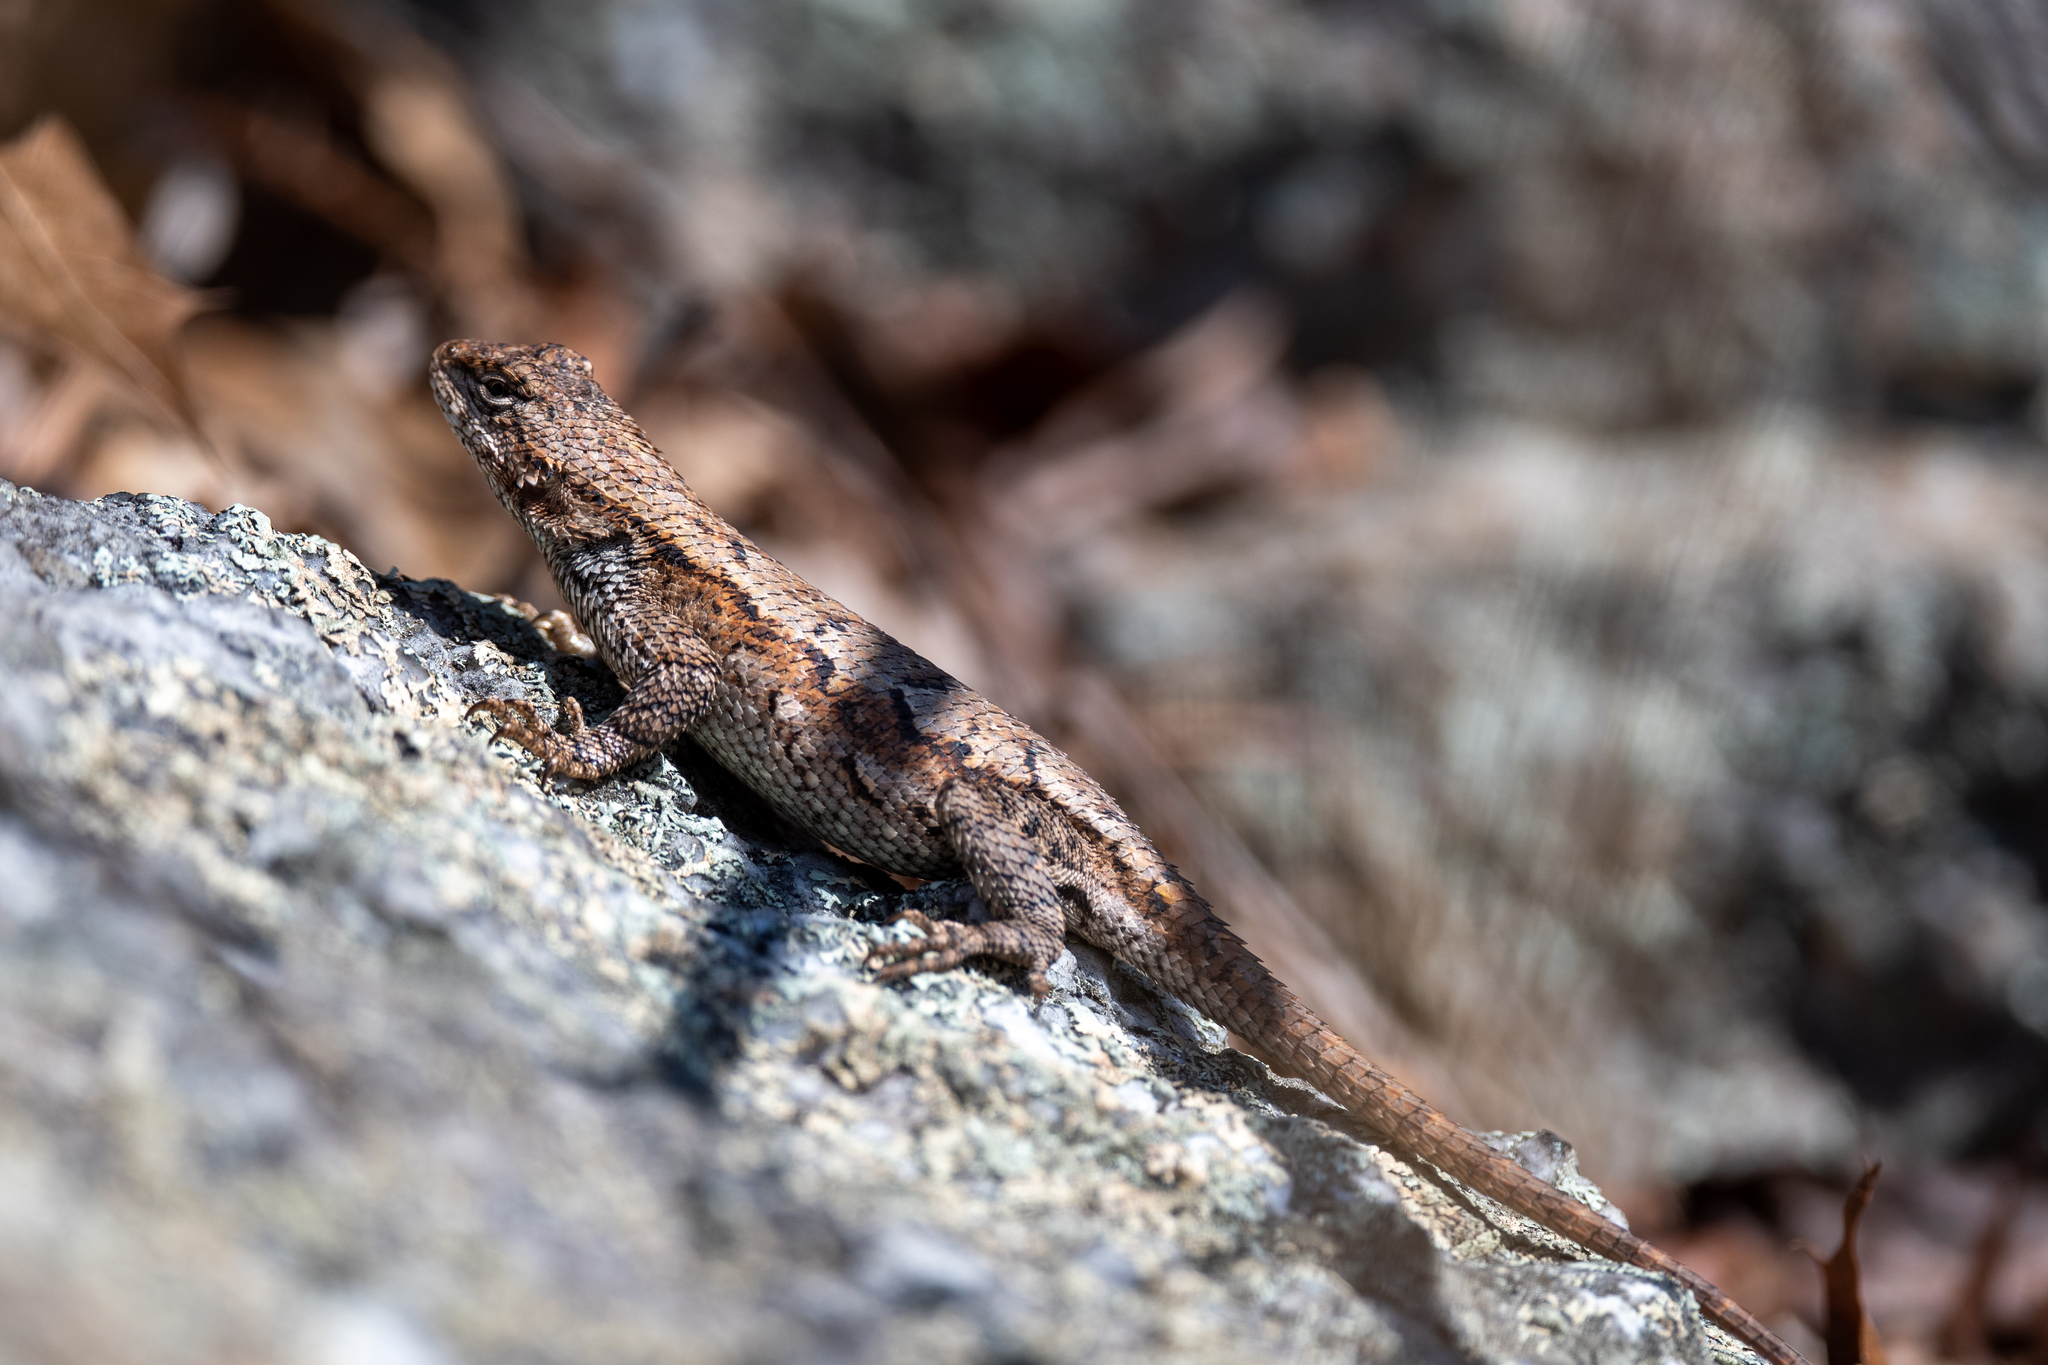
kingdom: Animalia
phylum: Chordata
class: Squamata
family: Phrynosomatidae
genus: Sceloporus
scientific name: Sceloporus undulatus
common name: Eastern fence lizard
